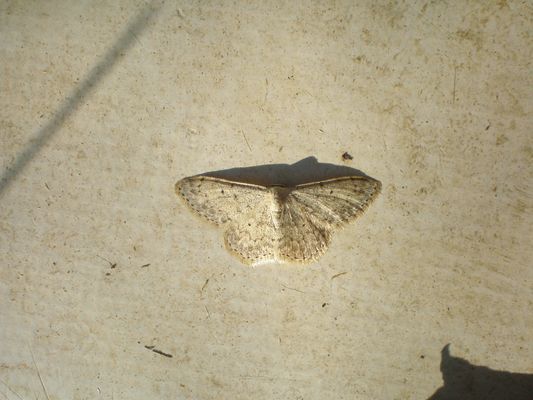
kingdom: Animalia
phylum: Arthropoda
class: Insecta
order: Lepidoptera
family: Geometridae
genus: Scopula
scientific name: Scopula marginepunctata
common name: Mullein wave
